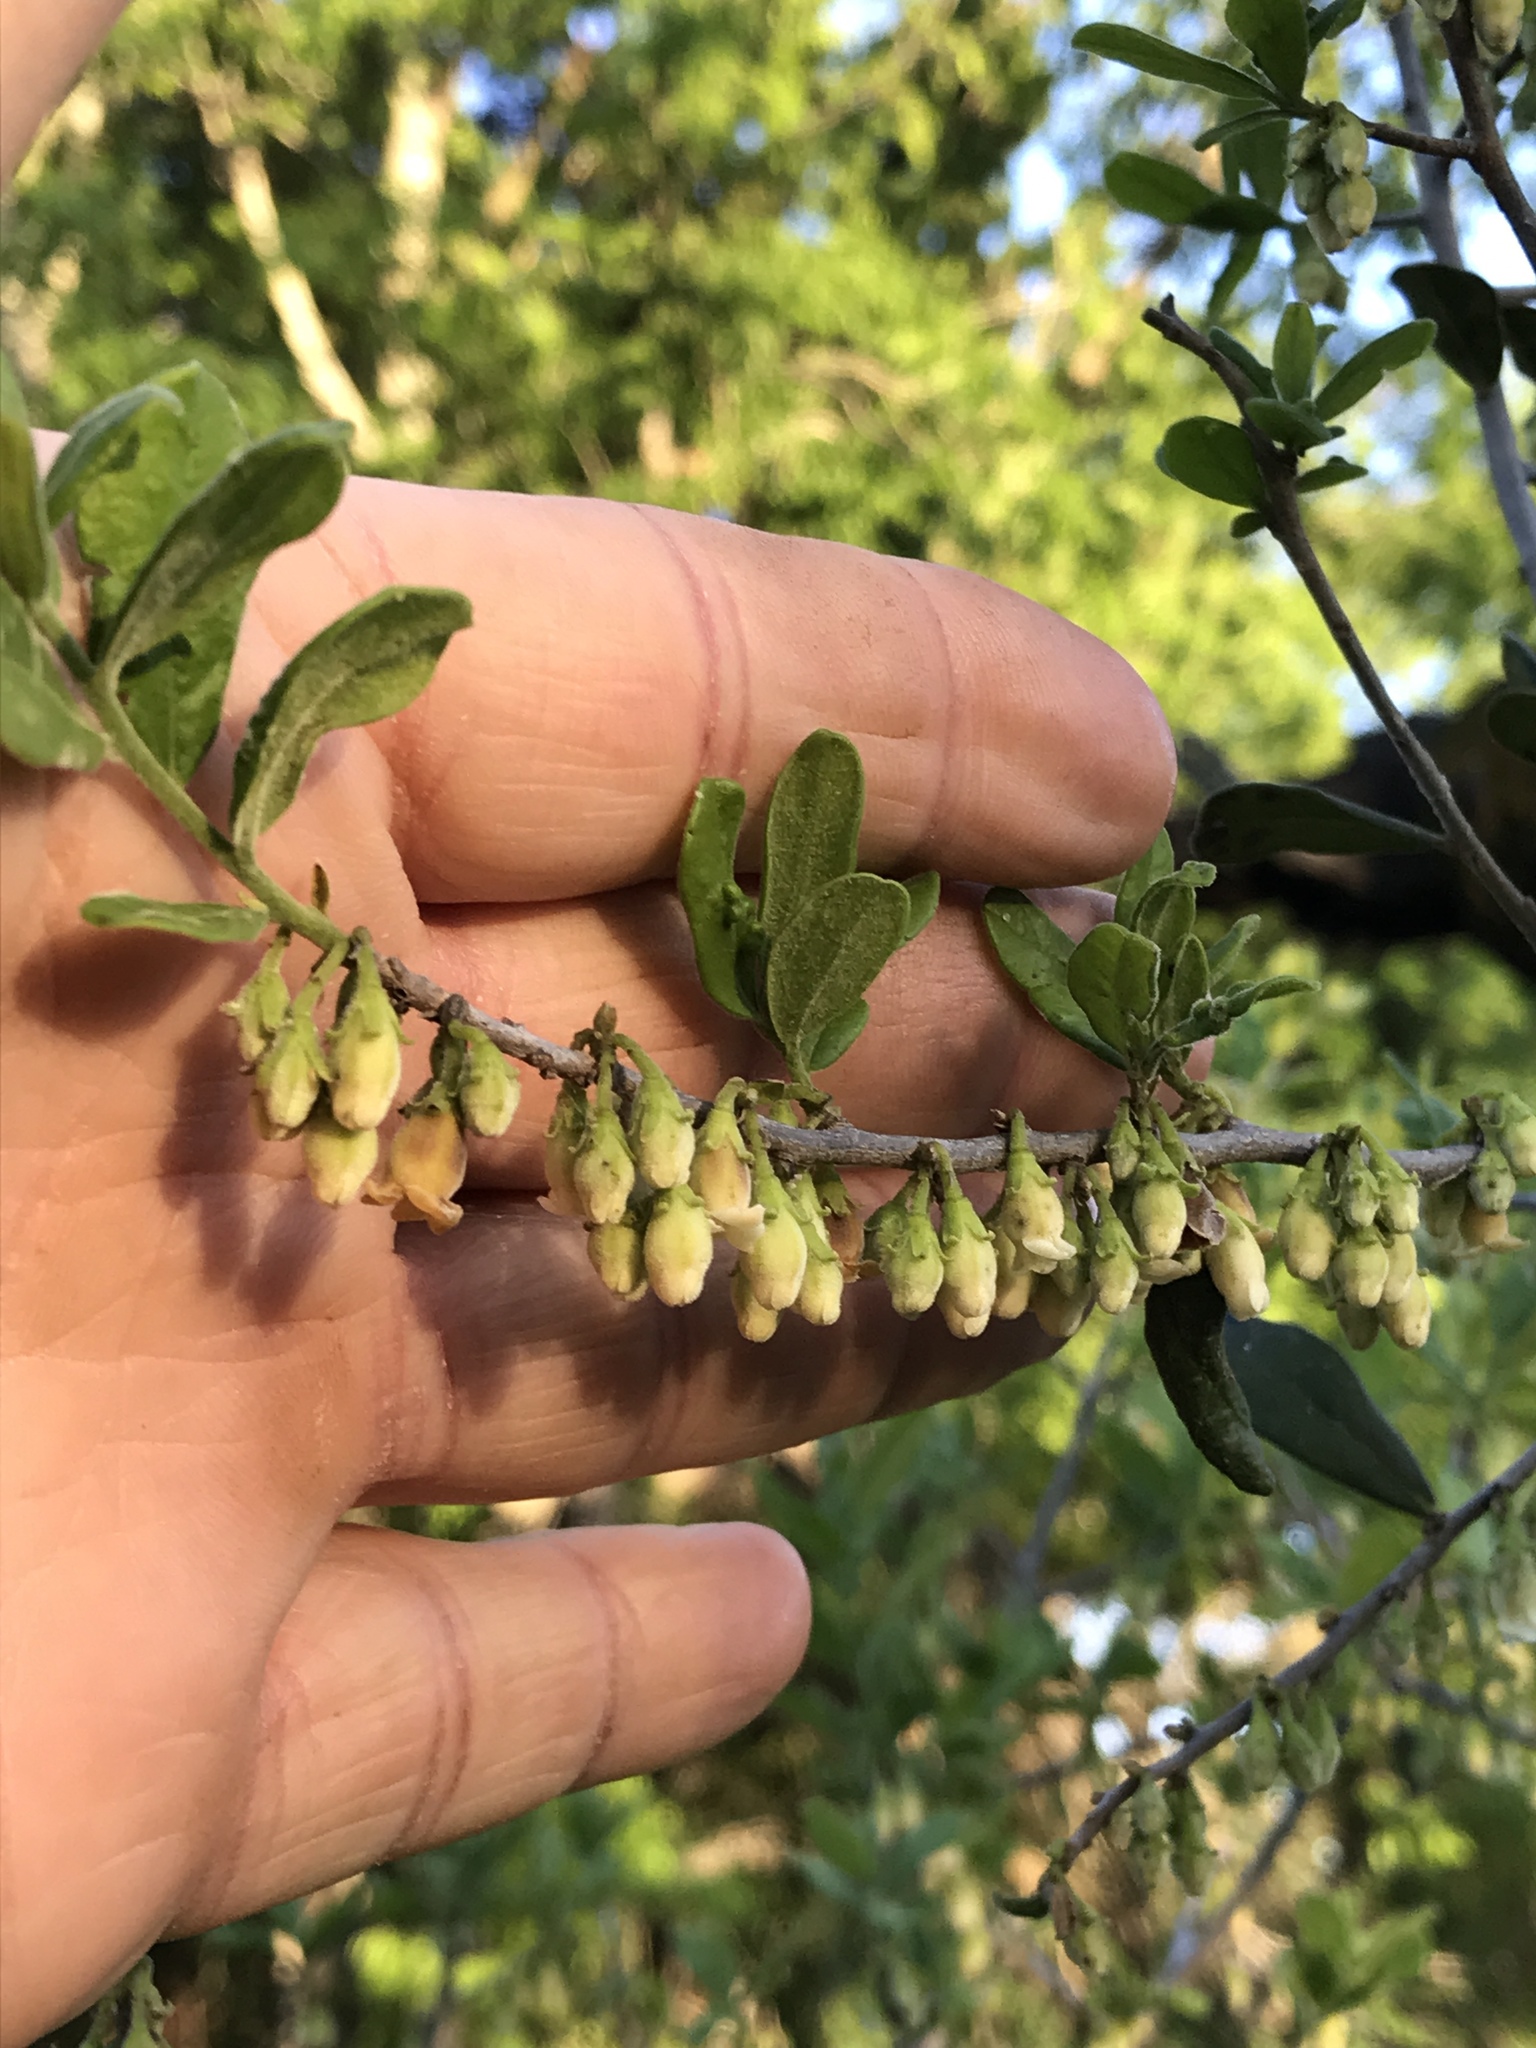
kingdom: Plantae
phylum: Tracheophyta
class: Magnoliopsida
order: Ericales
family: Ebenaceae
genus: Diospyros
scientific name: Diospyros texana
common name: Texas persimmon
